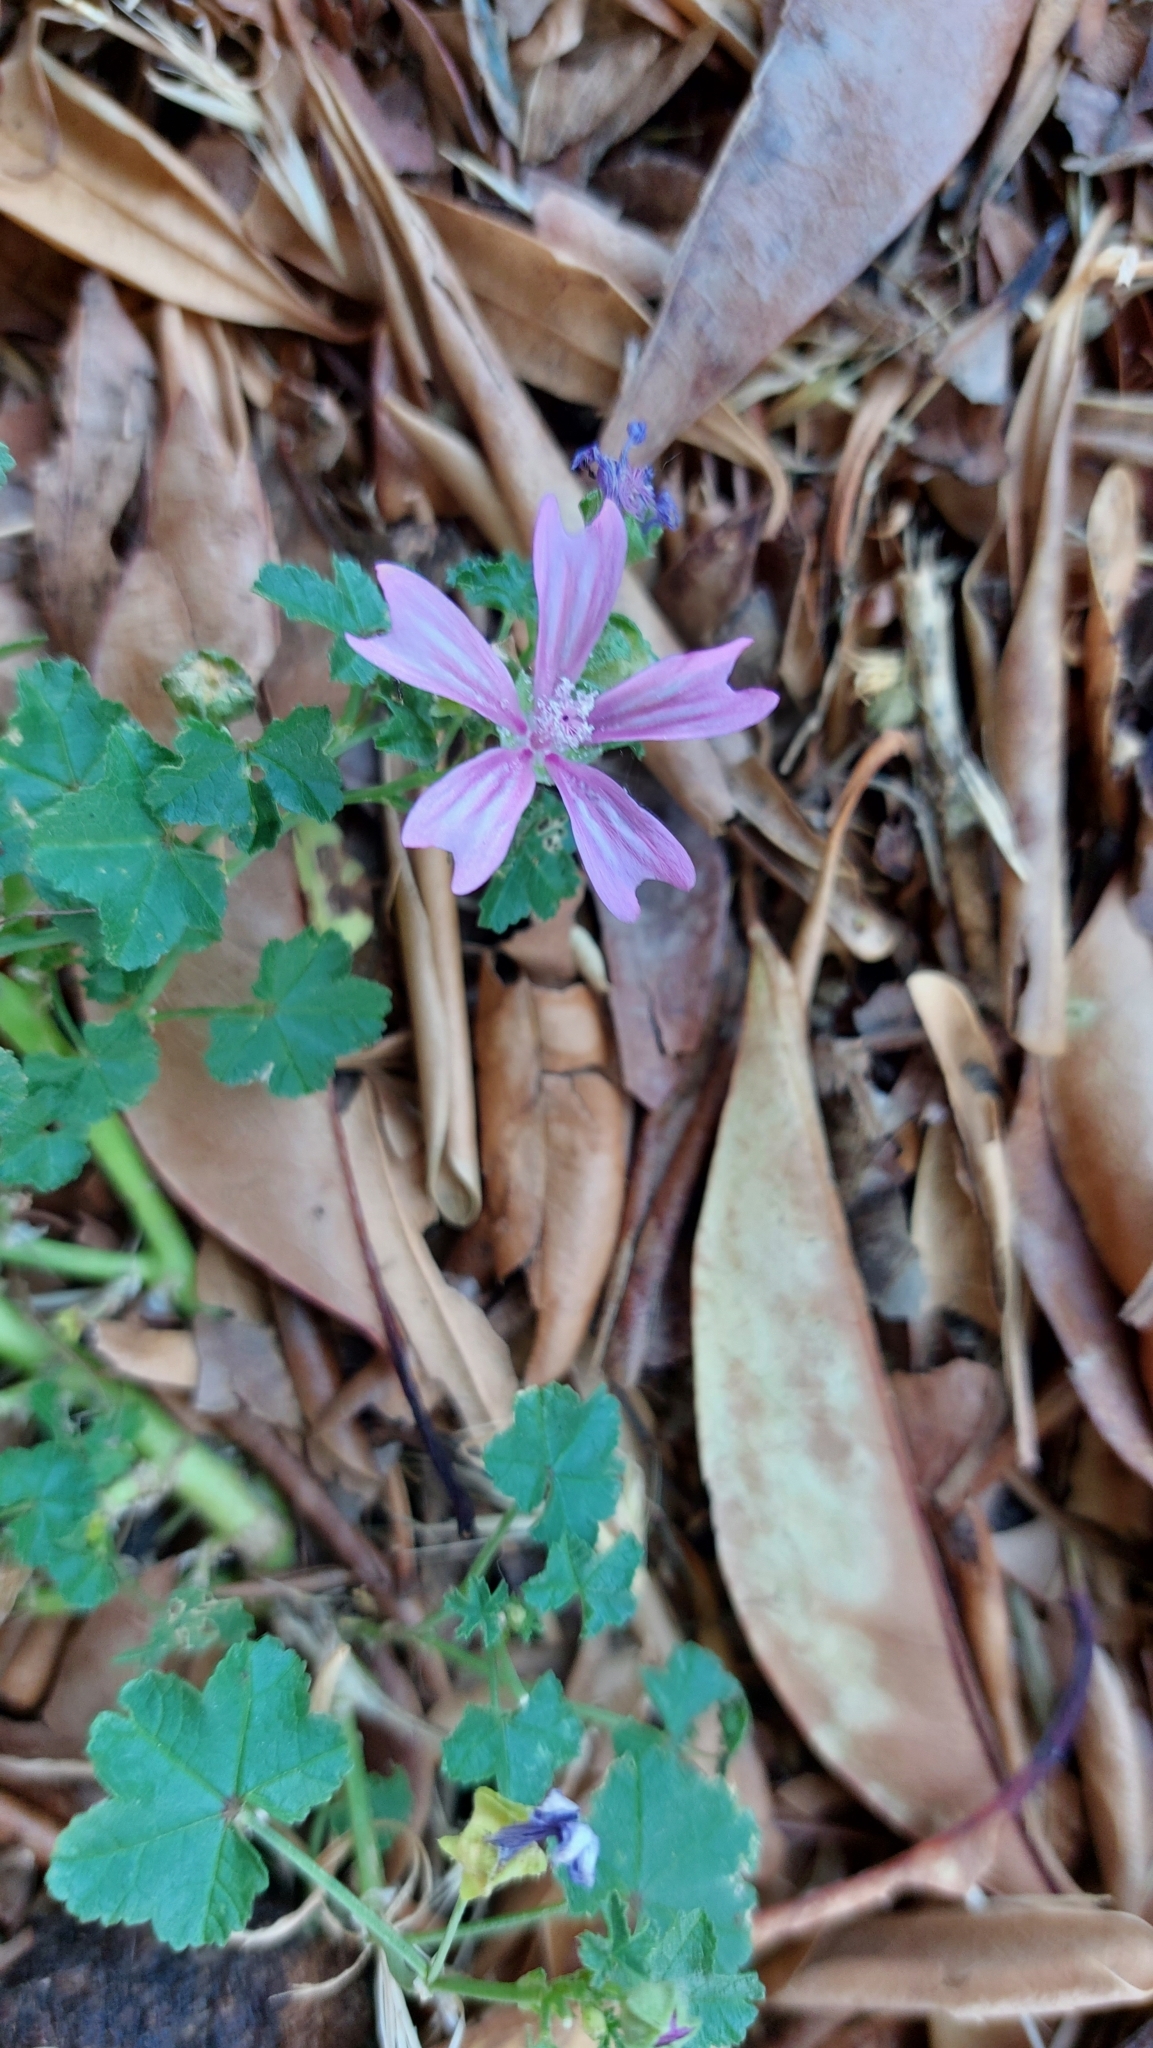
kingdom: Plantae
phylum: Tracheophyta
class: Magnoliopsida
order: Malvales
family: Malvaceae
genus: Malva
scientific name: Malva sylvestris
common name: Common mallow
